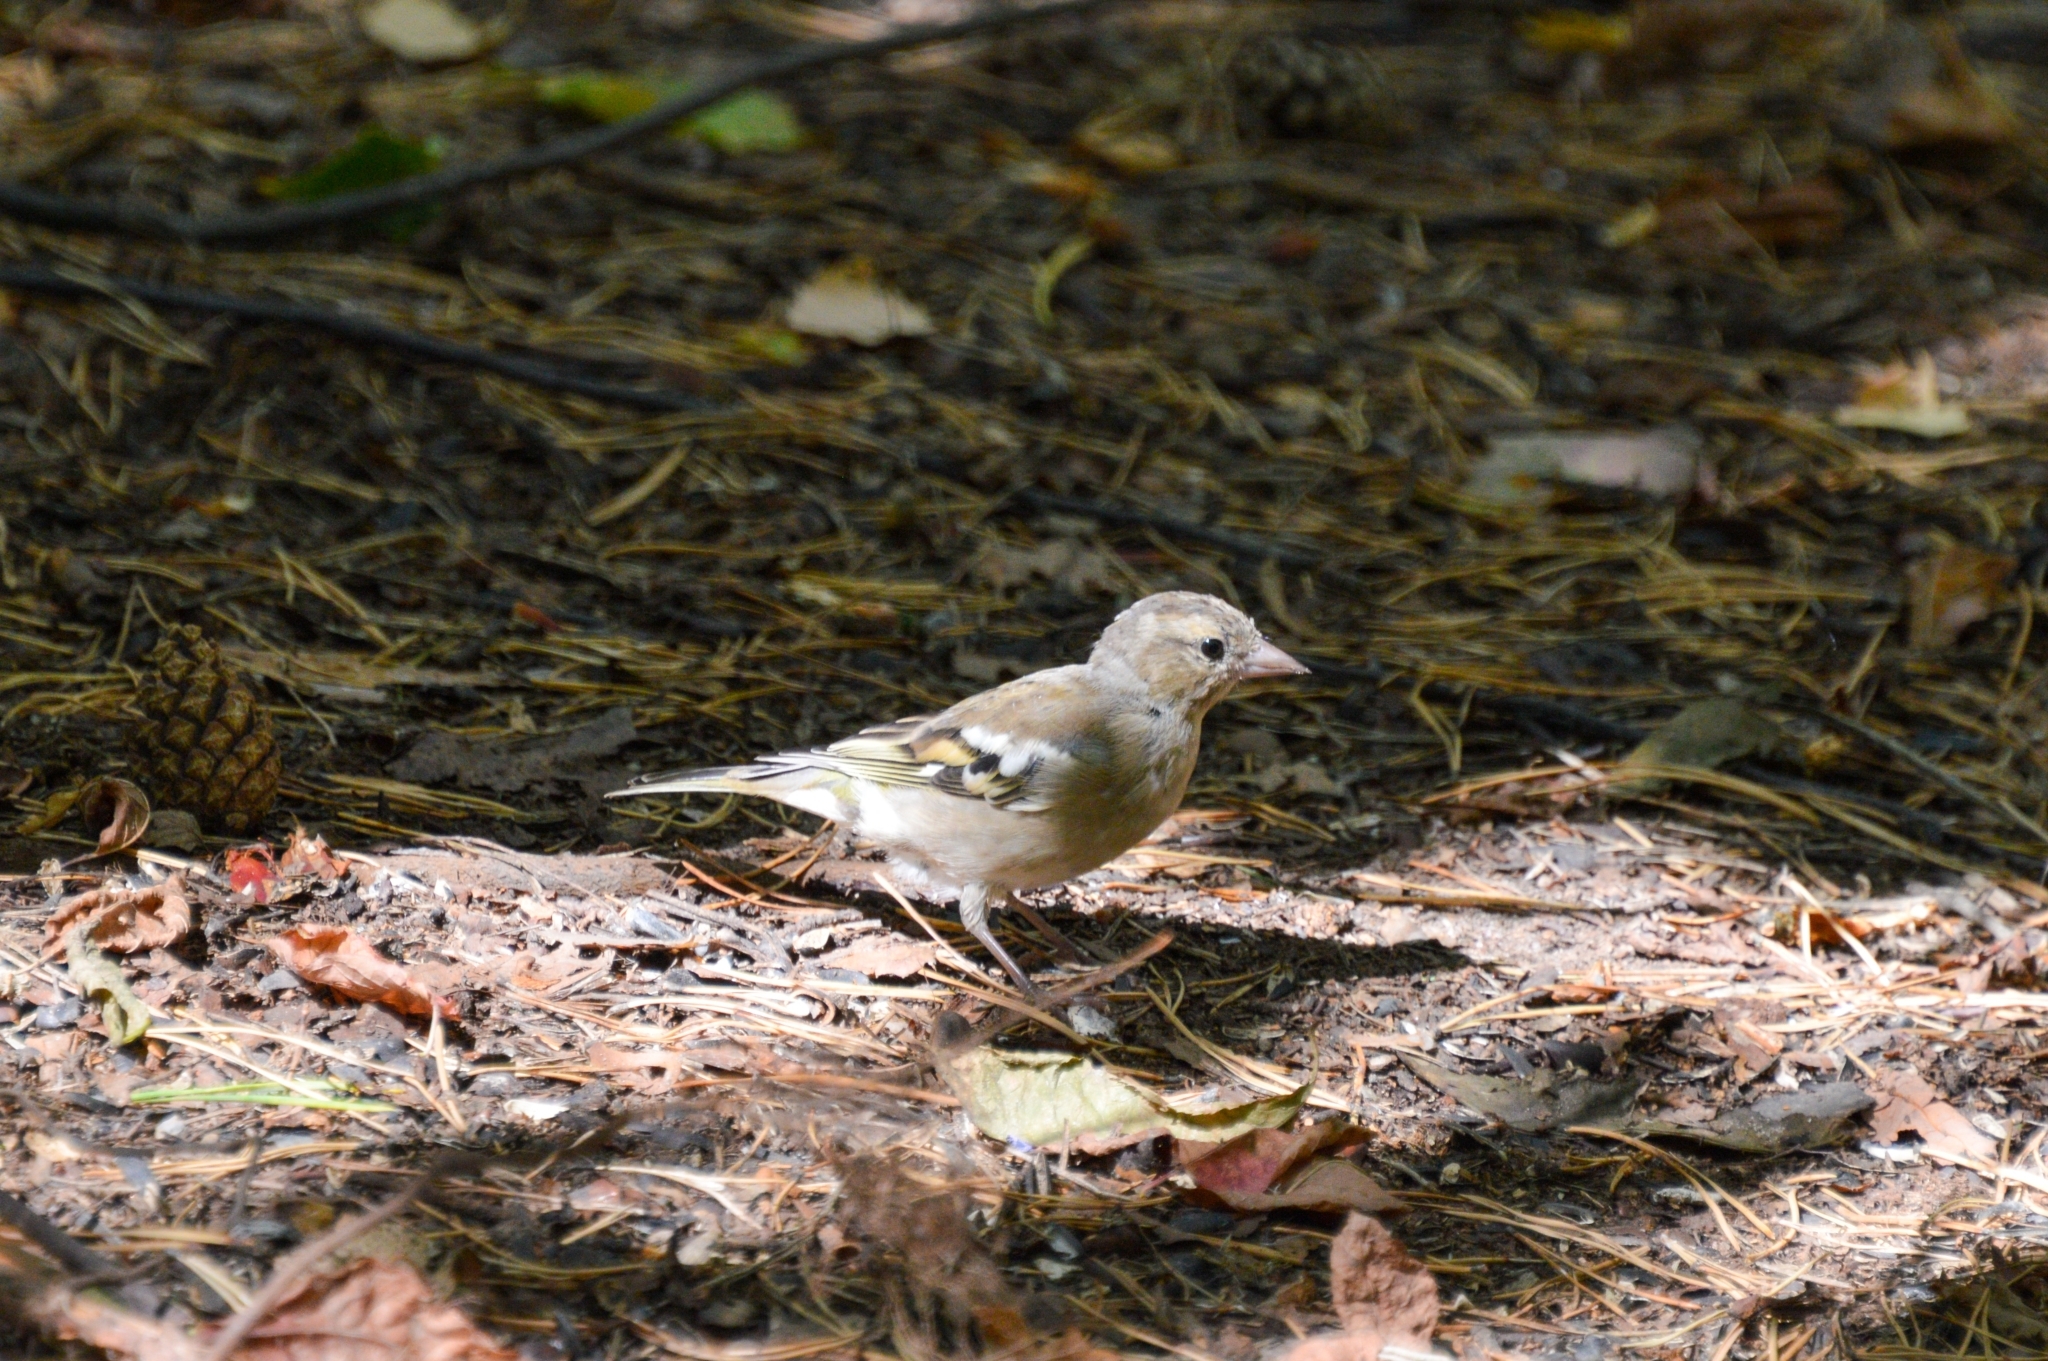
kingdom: Animalia
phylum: Chordata
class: Aves
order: Passeriformes
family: Fringillidae
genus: Fringilla
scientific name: Fringilla coelebs
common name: Common chaffinch
